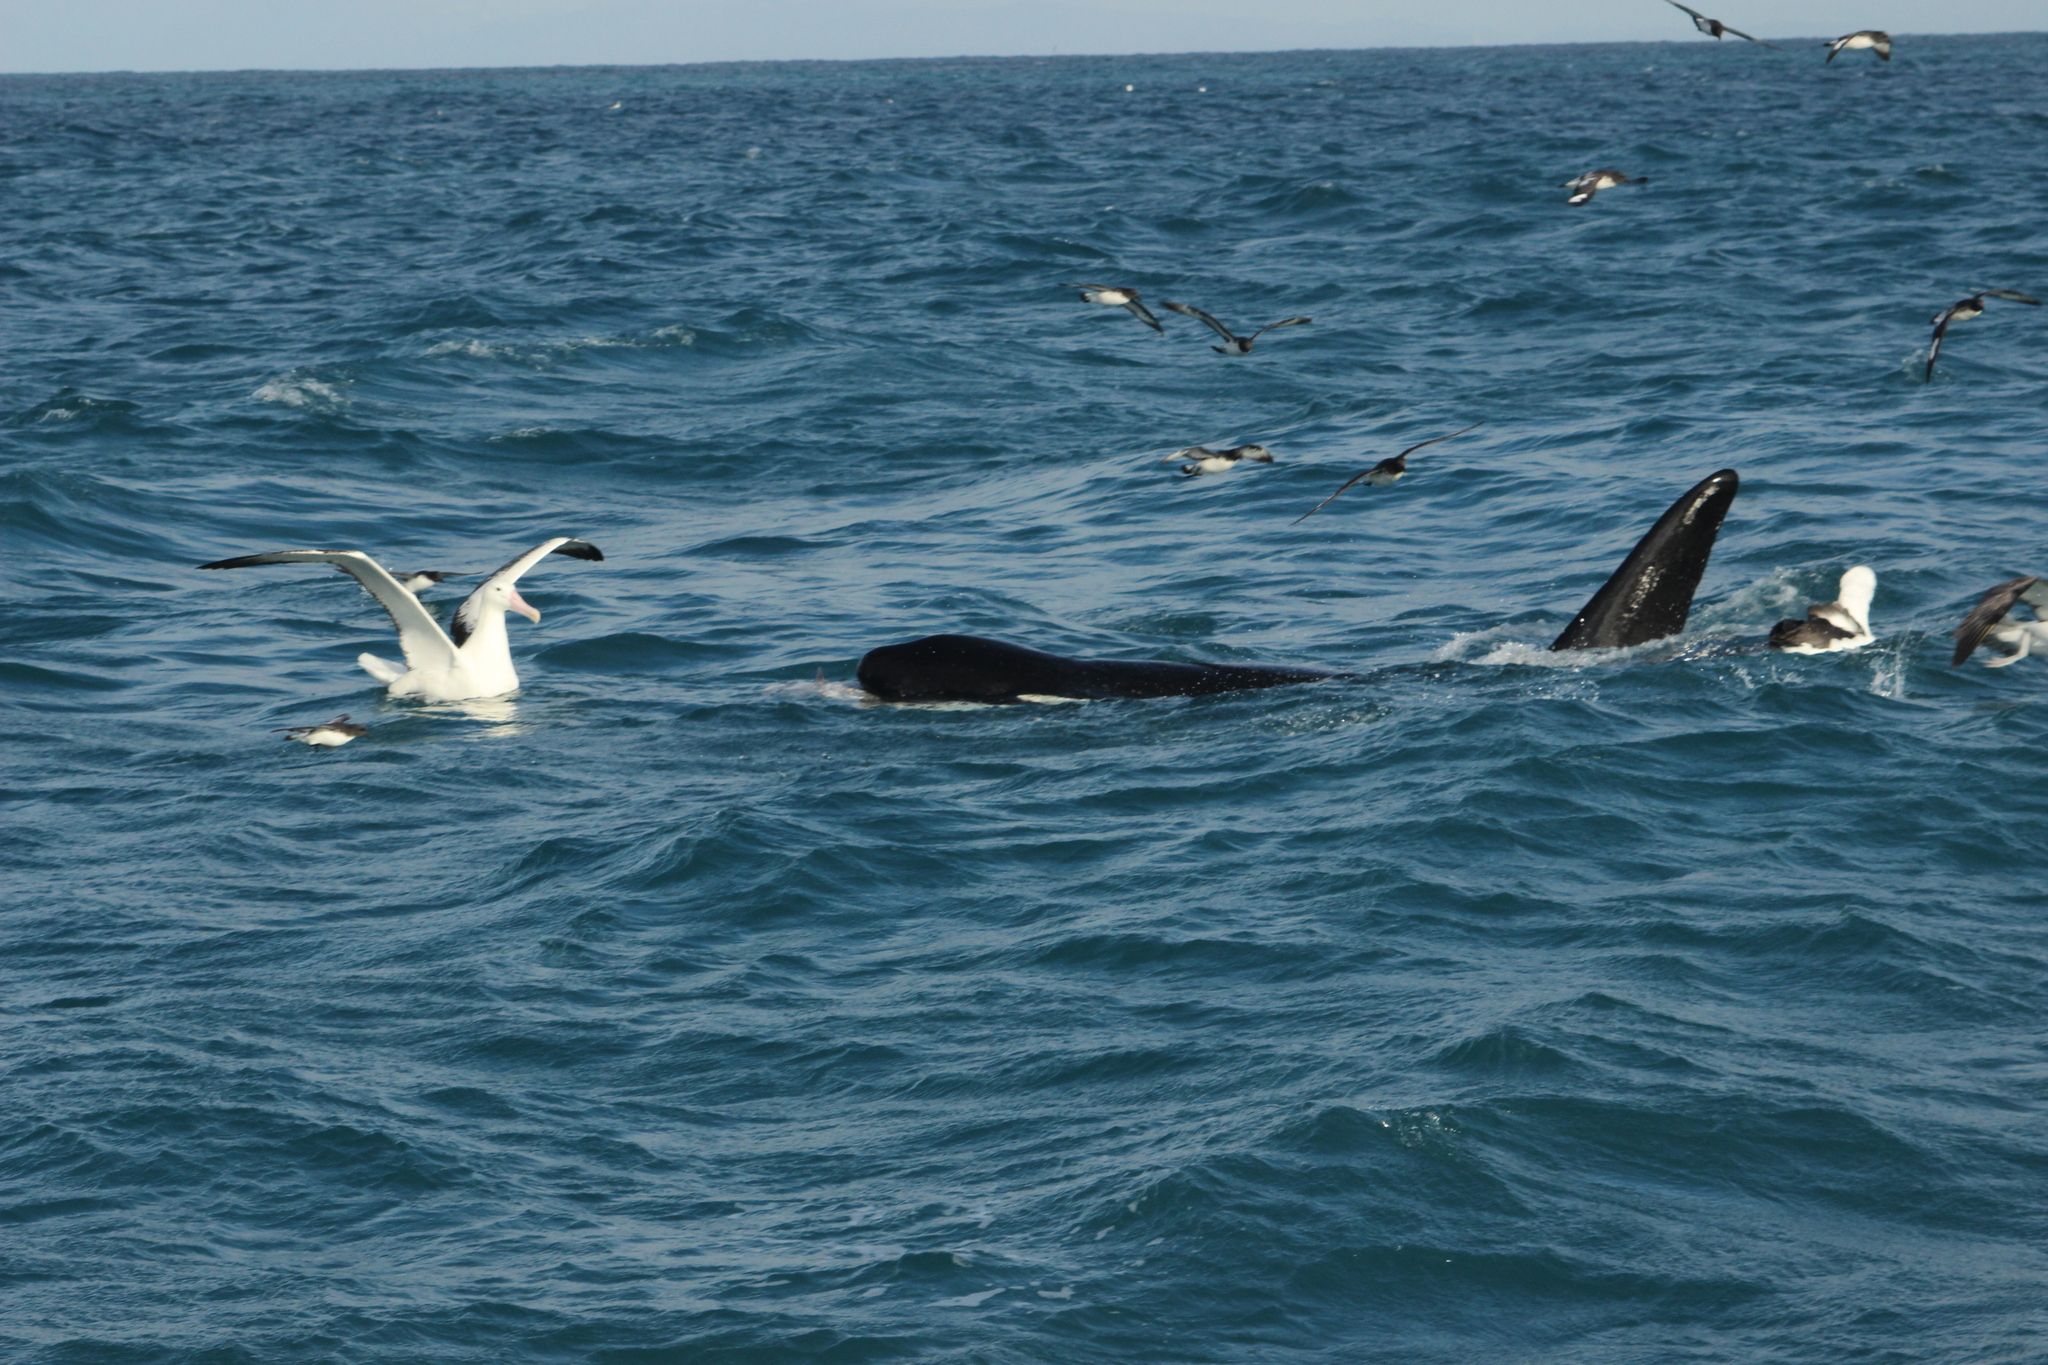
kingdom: Animalia
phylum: Chordata
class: Mammalia
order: Cetacea
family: Delphinidae
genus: Orcinus
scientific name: Orcinus orca
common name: Killer whale
